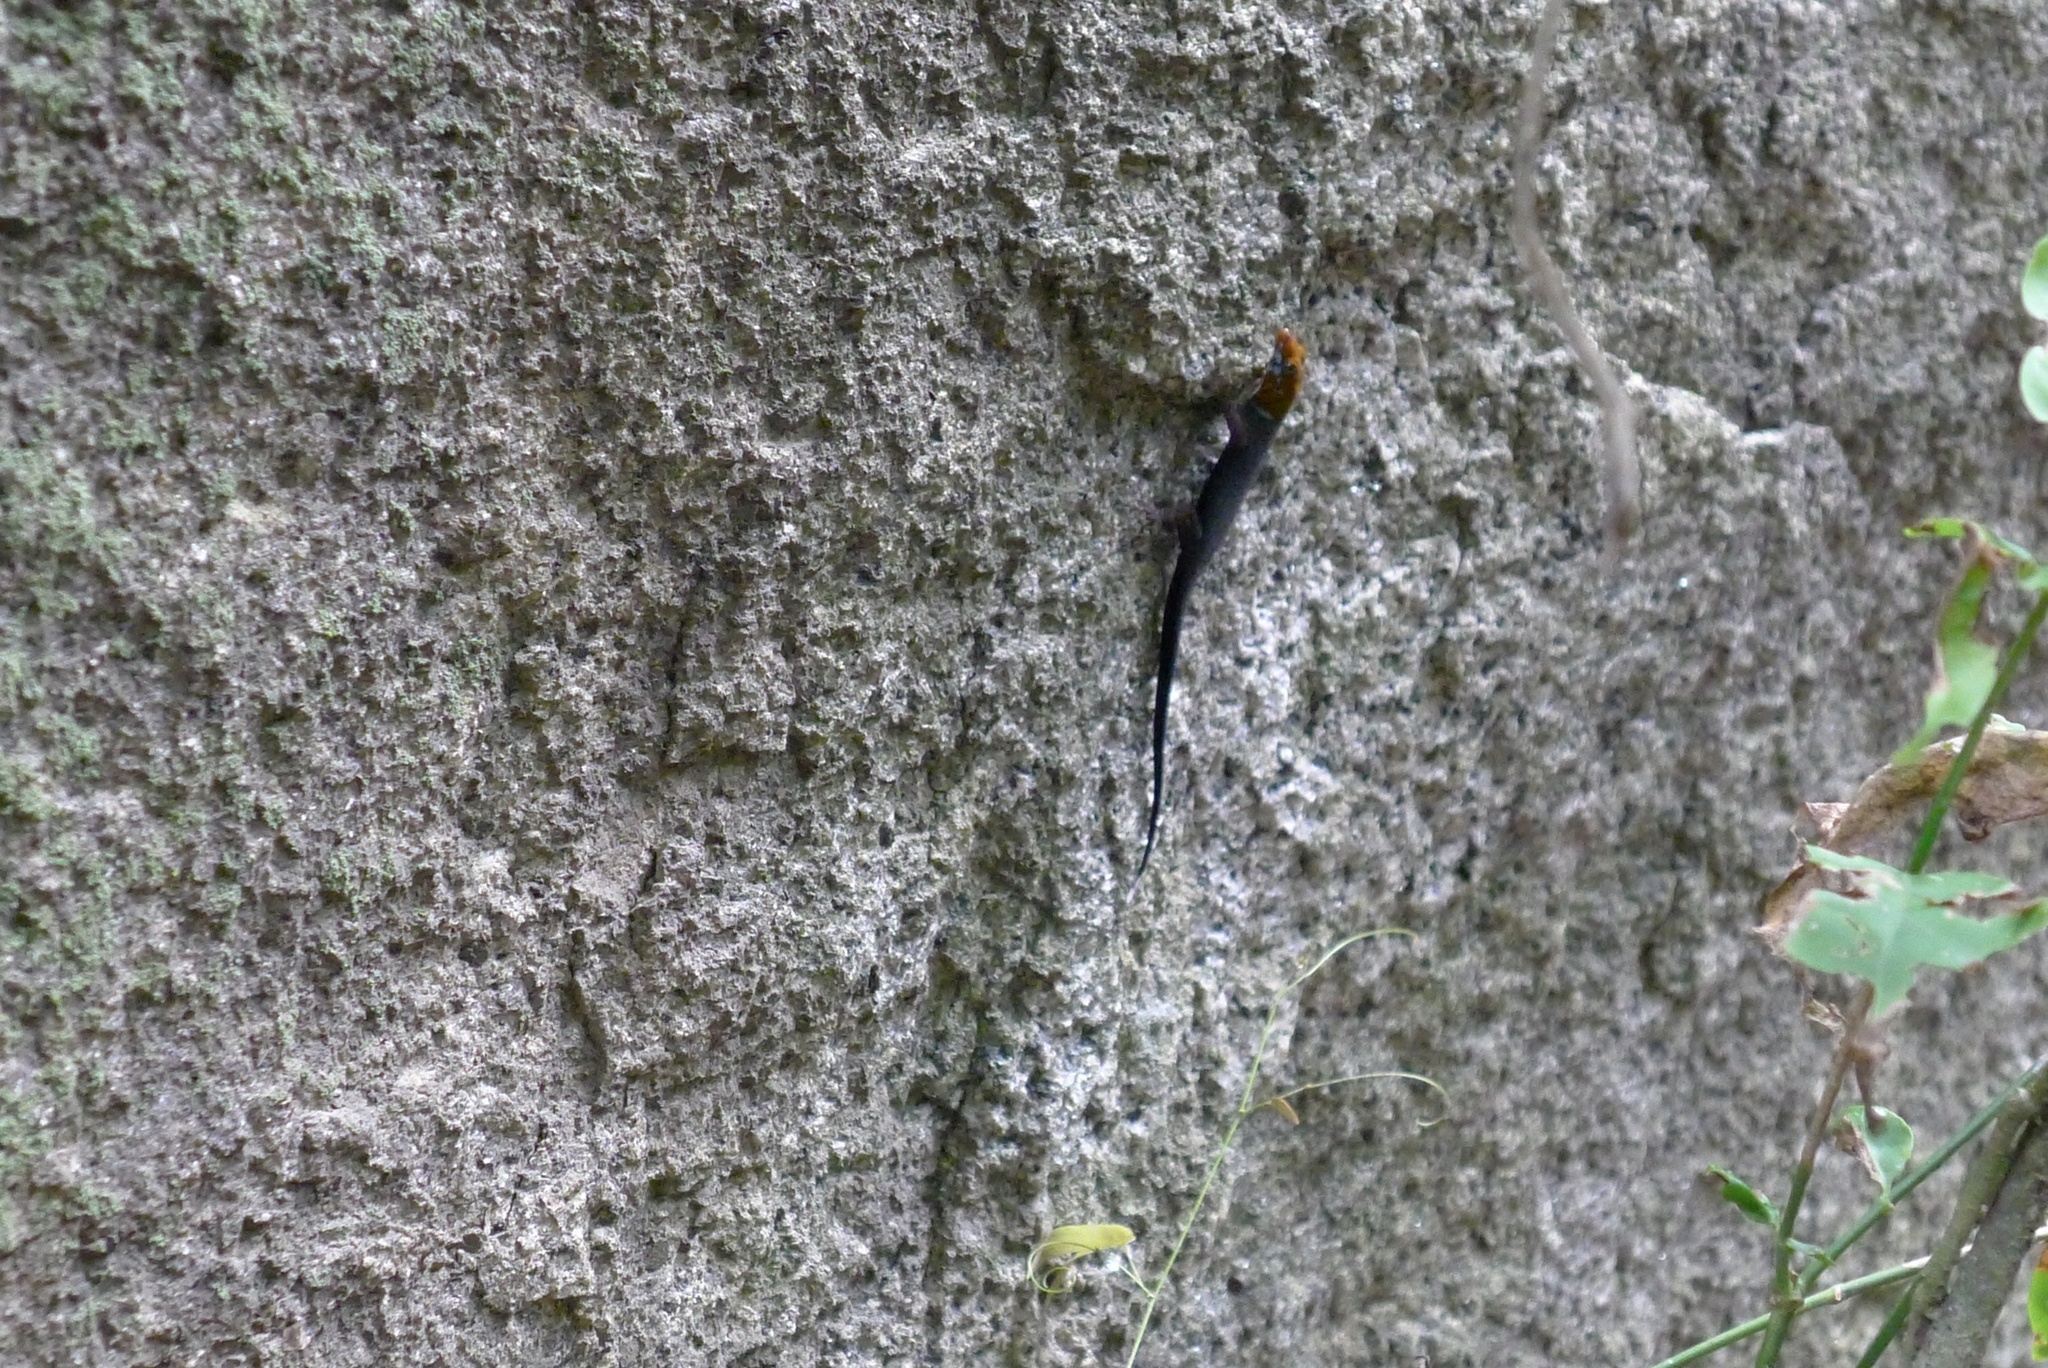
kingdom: Animalia
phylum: Chordata
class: Squamata
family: Sphaerodactylidae
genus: Gonatodes
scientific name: Gonatodes albogularis
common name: Yellow-headed gecko
